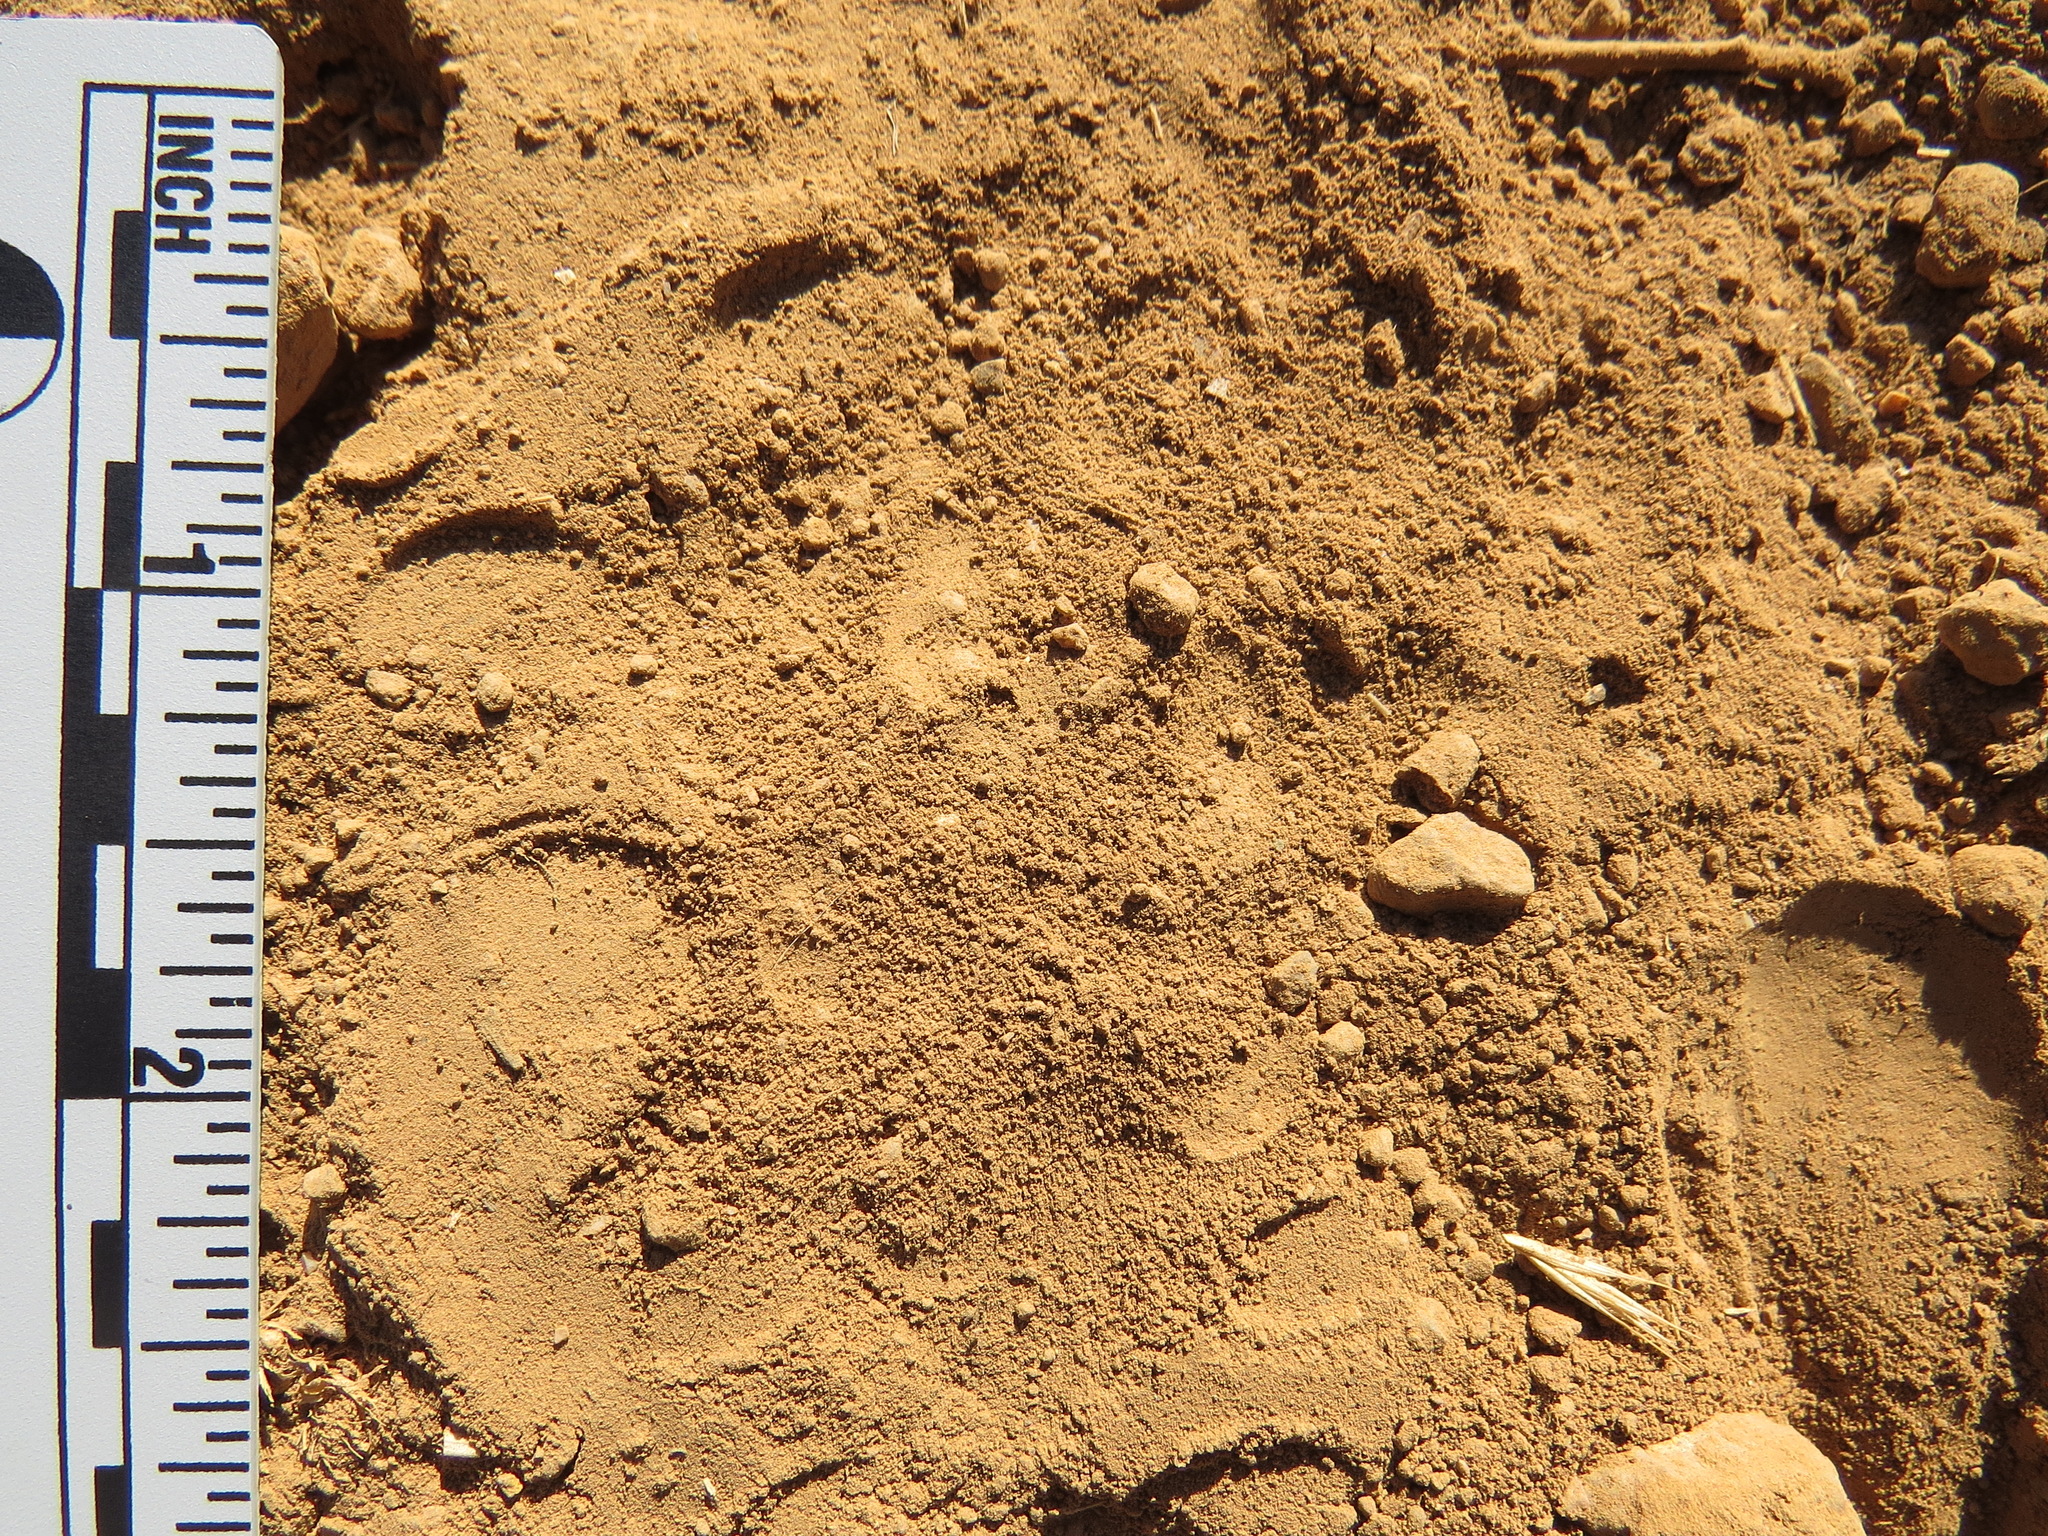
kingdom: Animalia
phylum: Chordata
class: Mammalia
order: Carnivora
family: Canidae
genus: Urocyon
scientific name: Urocyon cinereoargenteus
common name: Gray fox
